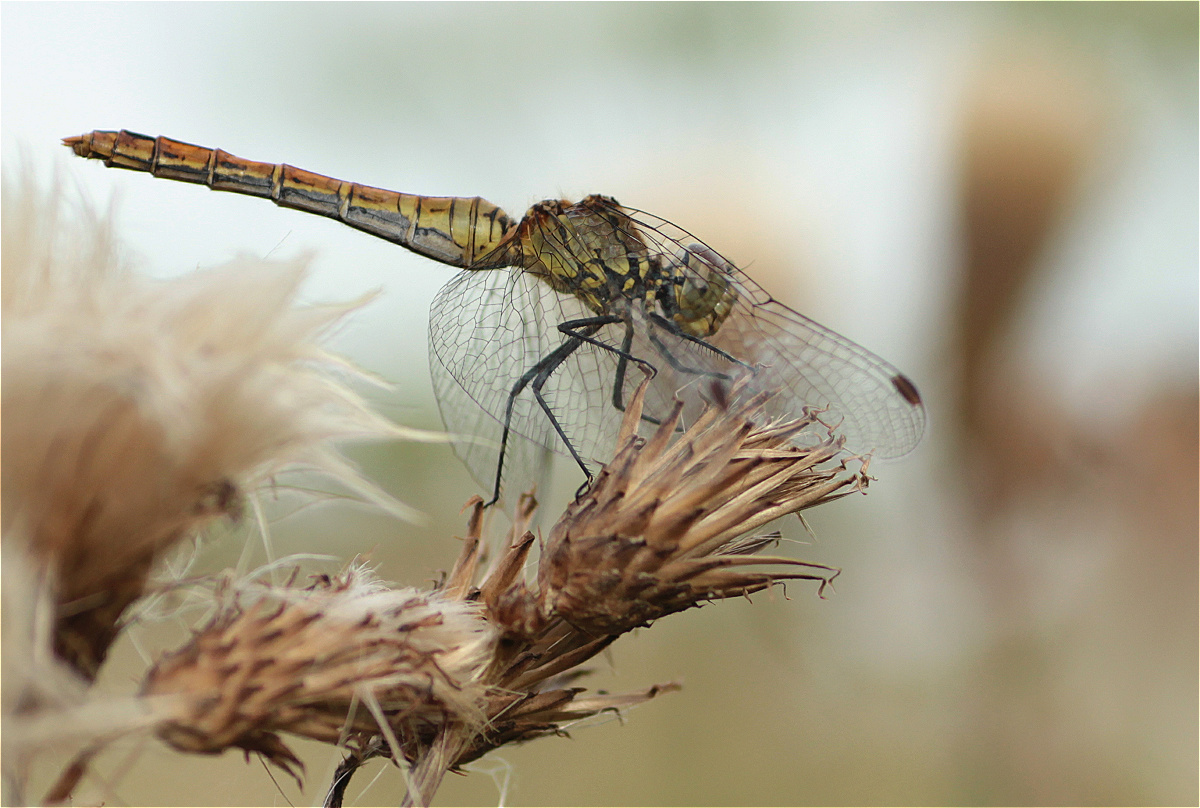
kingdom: Animalia
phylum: Arthropoda
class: Insecta
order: Odonata
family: Libellulidae
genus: Sympetrum
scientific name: Sympetrum sanguineum
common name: Ruddy darter
